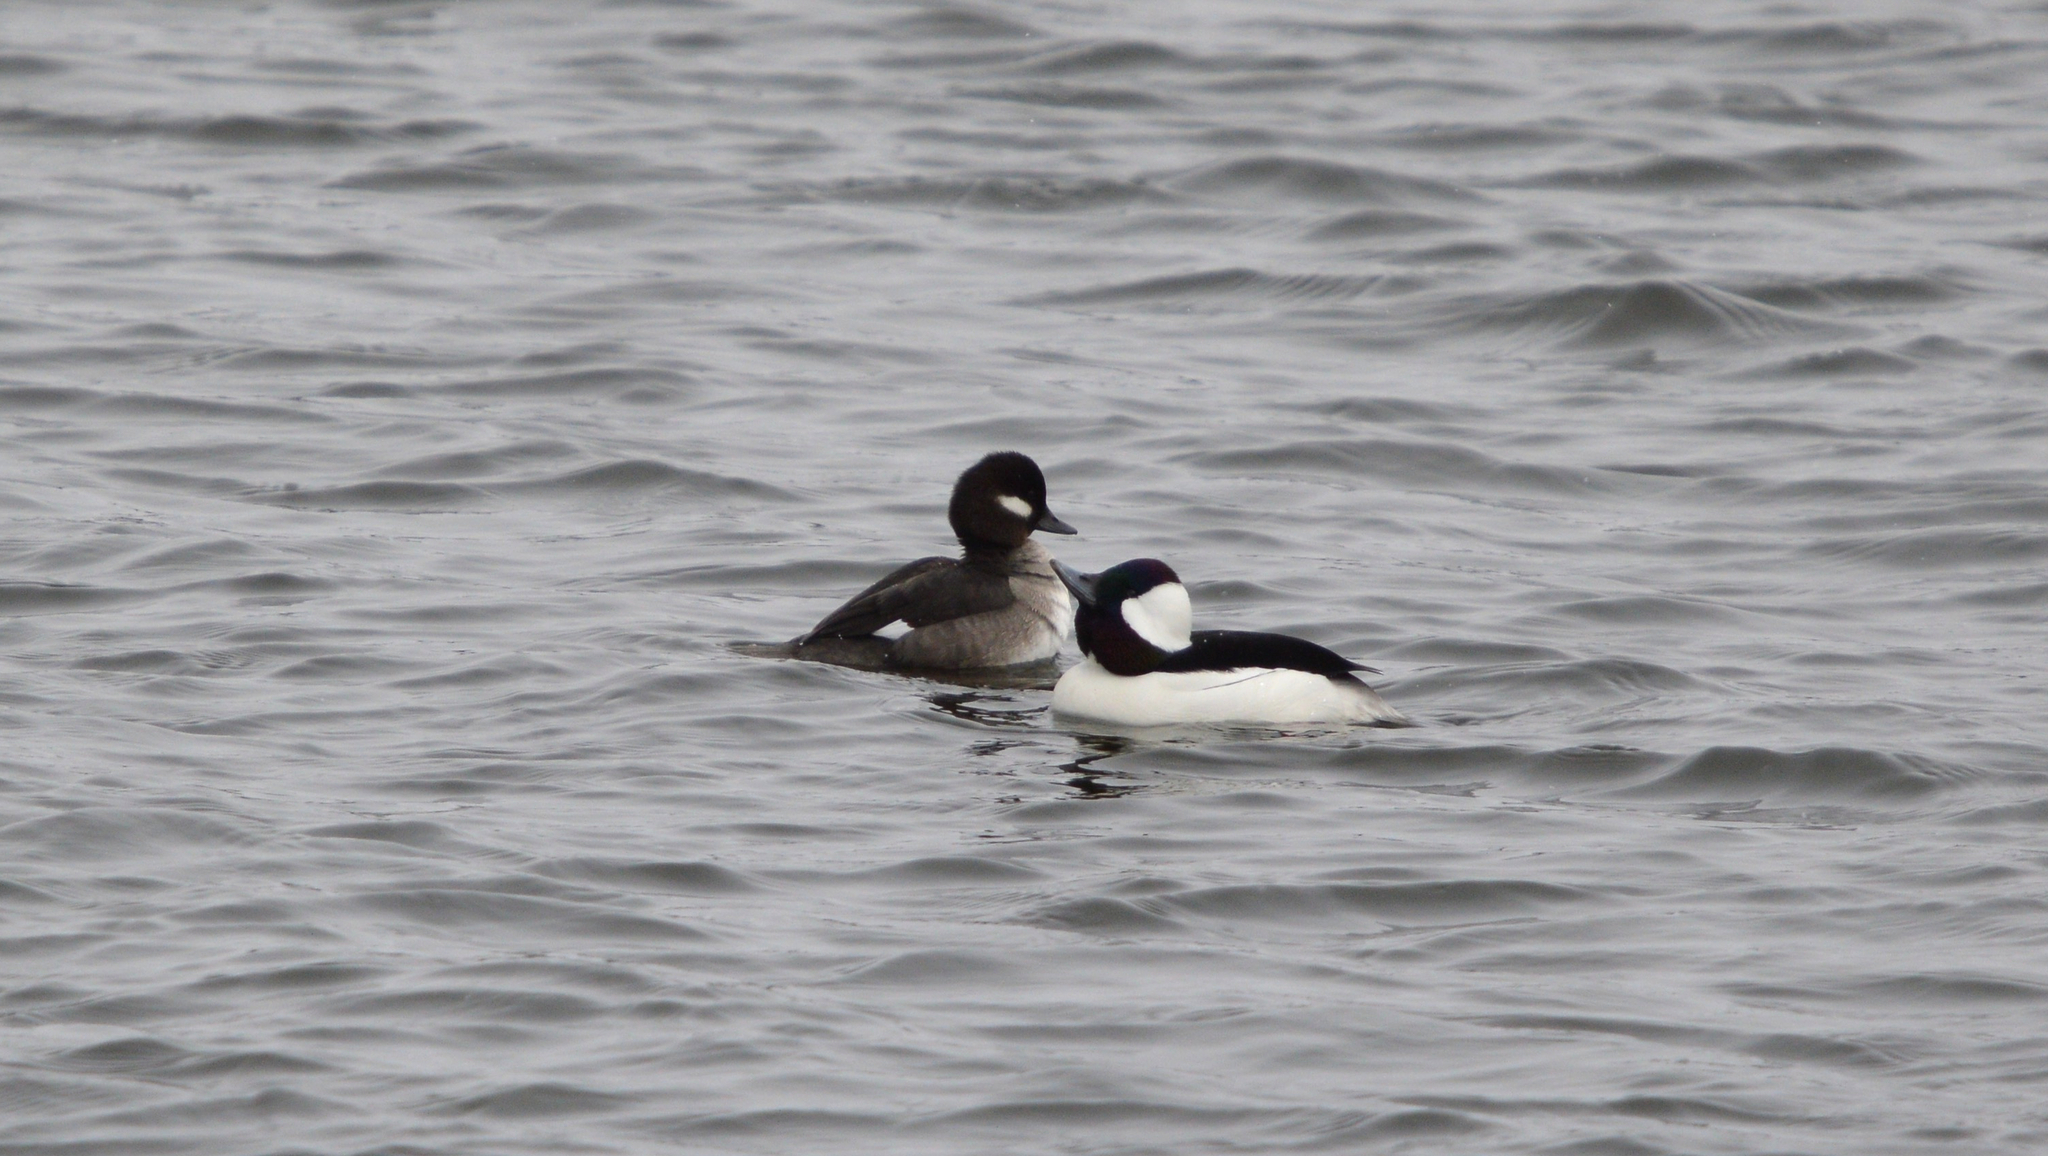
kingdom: Animalia
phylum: Chordata
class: Aves
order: Anseriformes
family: Anatidae
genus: Bucephala
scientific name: Bucephala albeola
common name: Bufflehead
